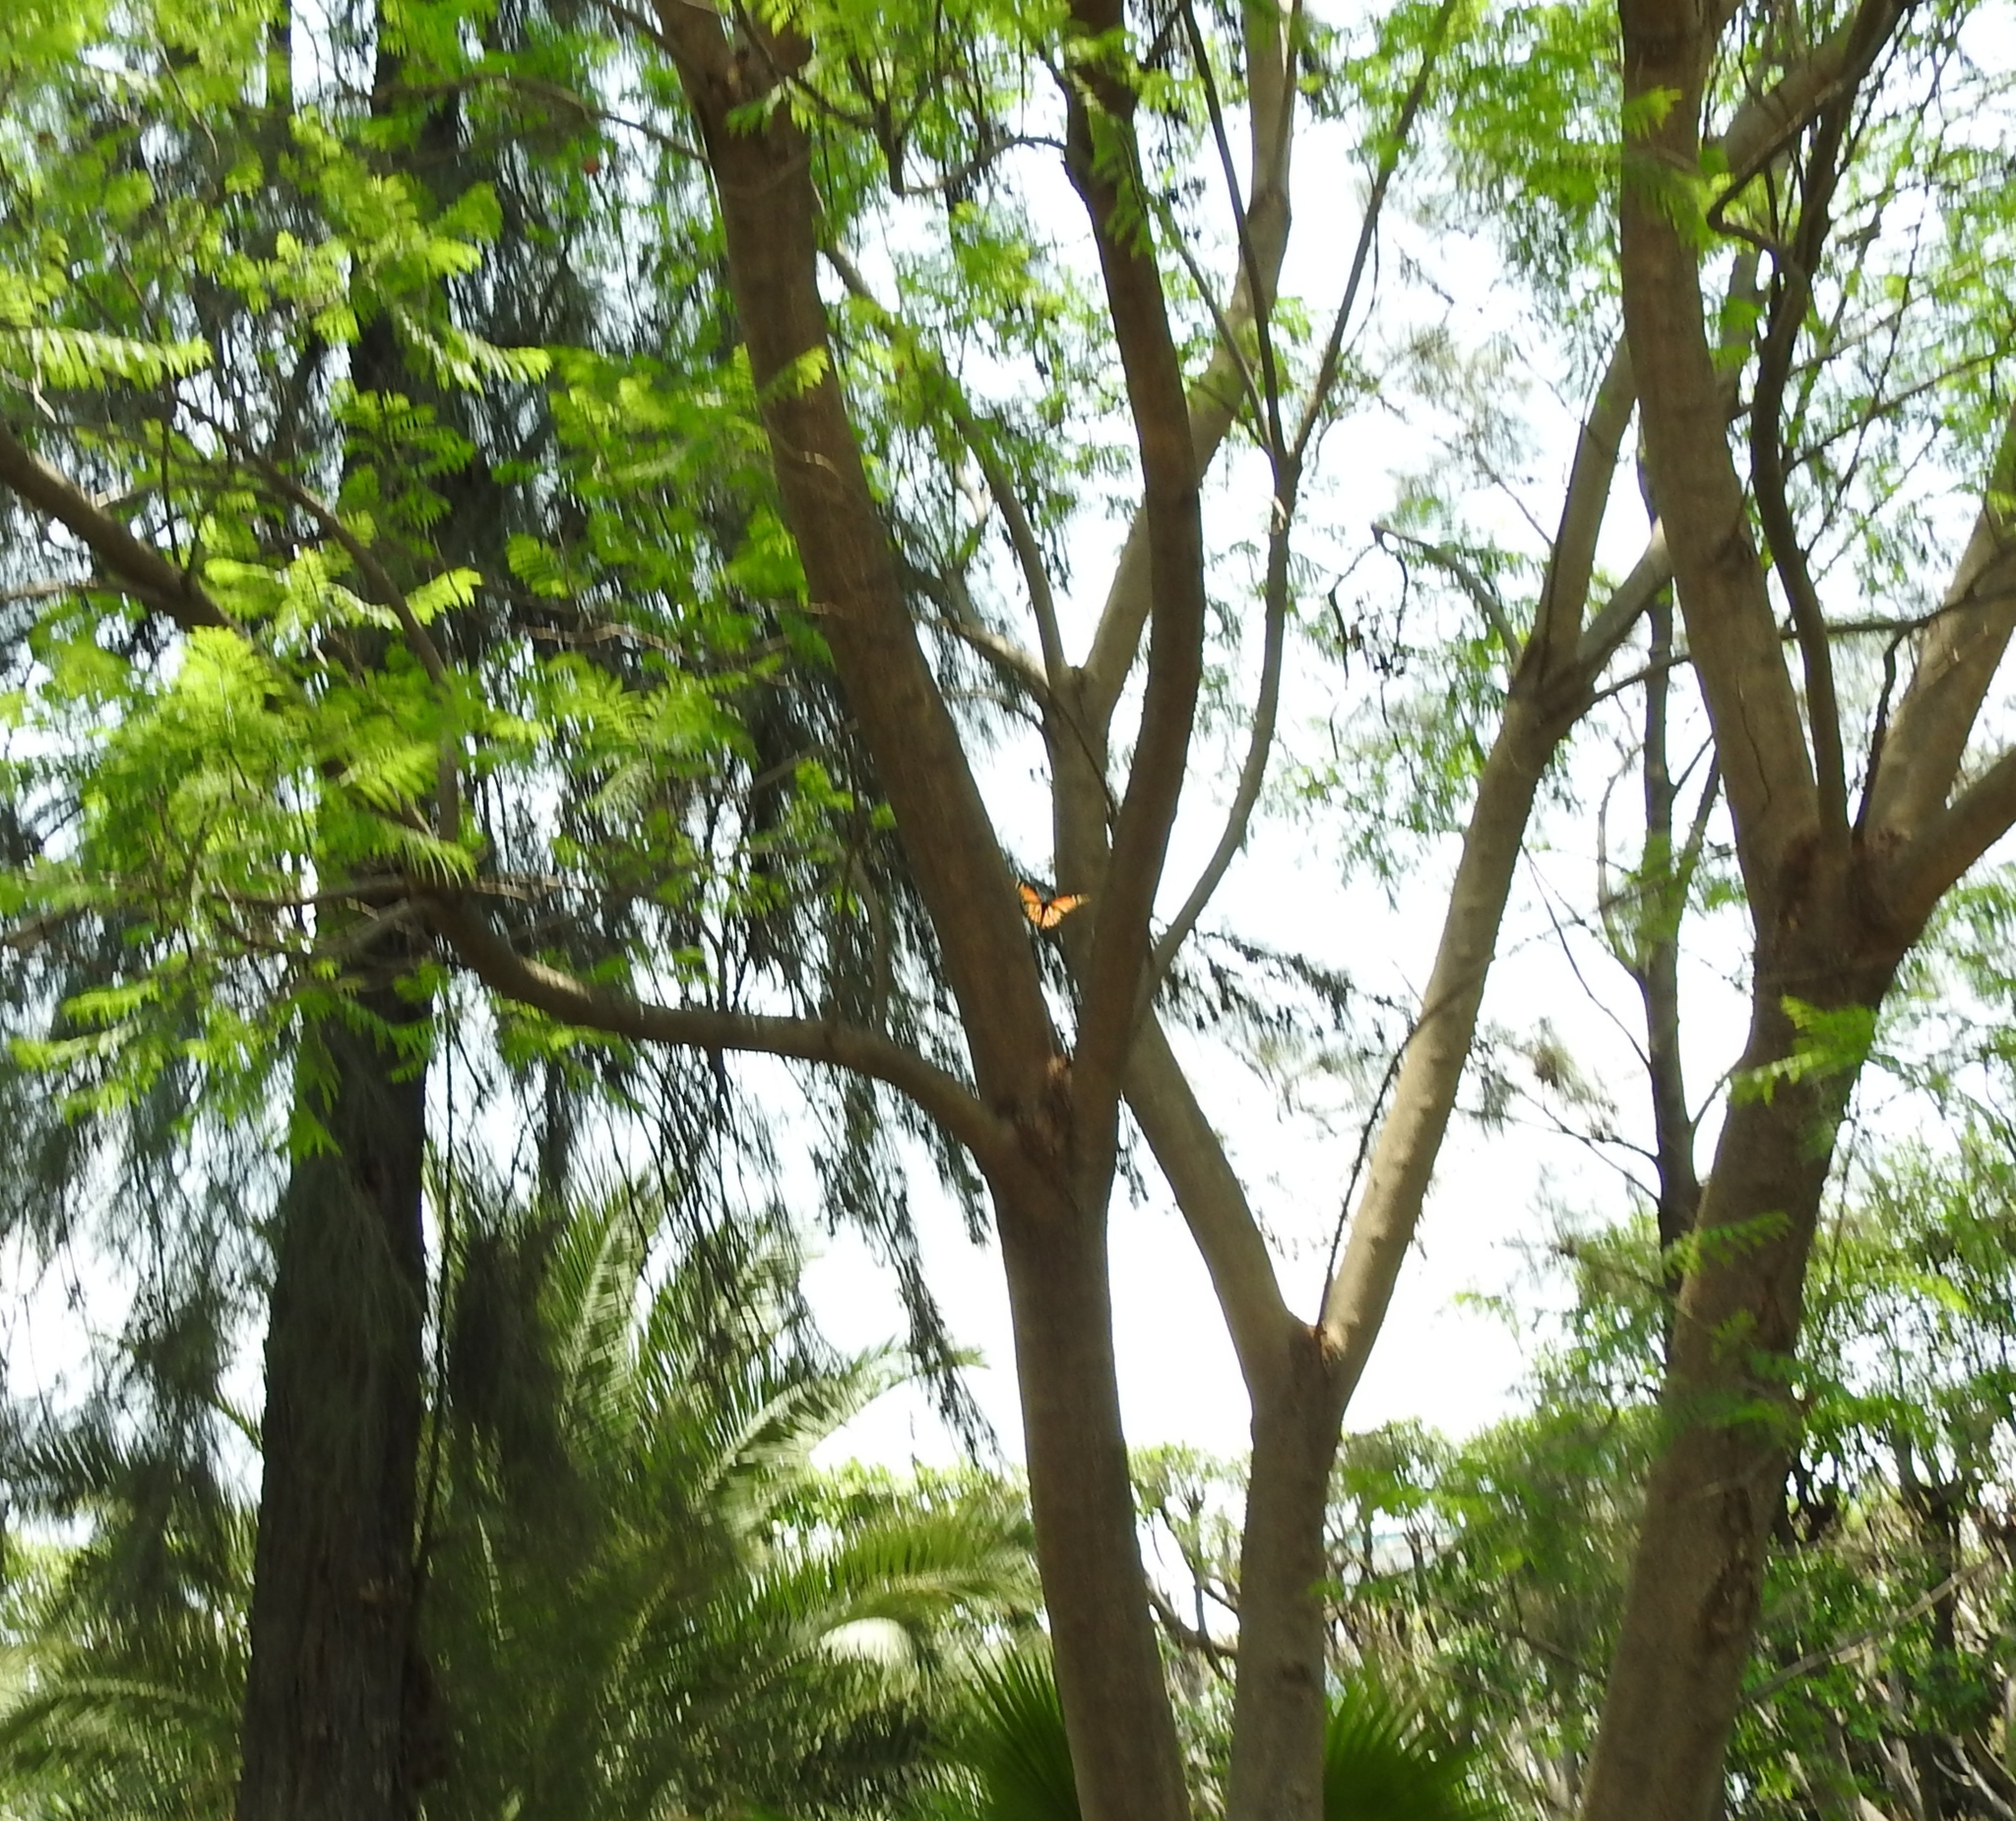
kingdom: Animalia
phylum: Arthropoda
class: Insecta
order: Lepidoptera
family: Nymphalidae
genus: Danaus
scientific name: Danaus plexippus
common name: Monarch
